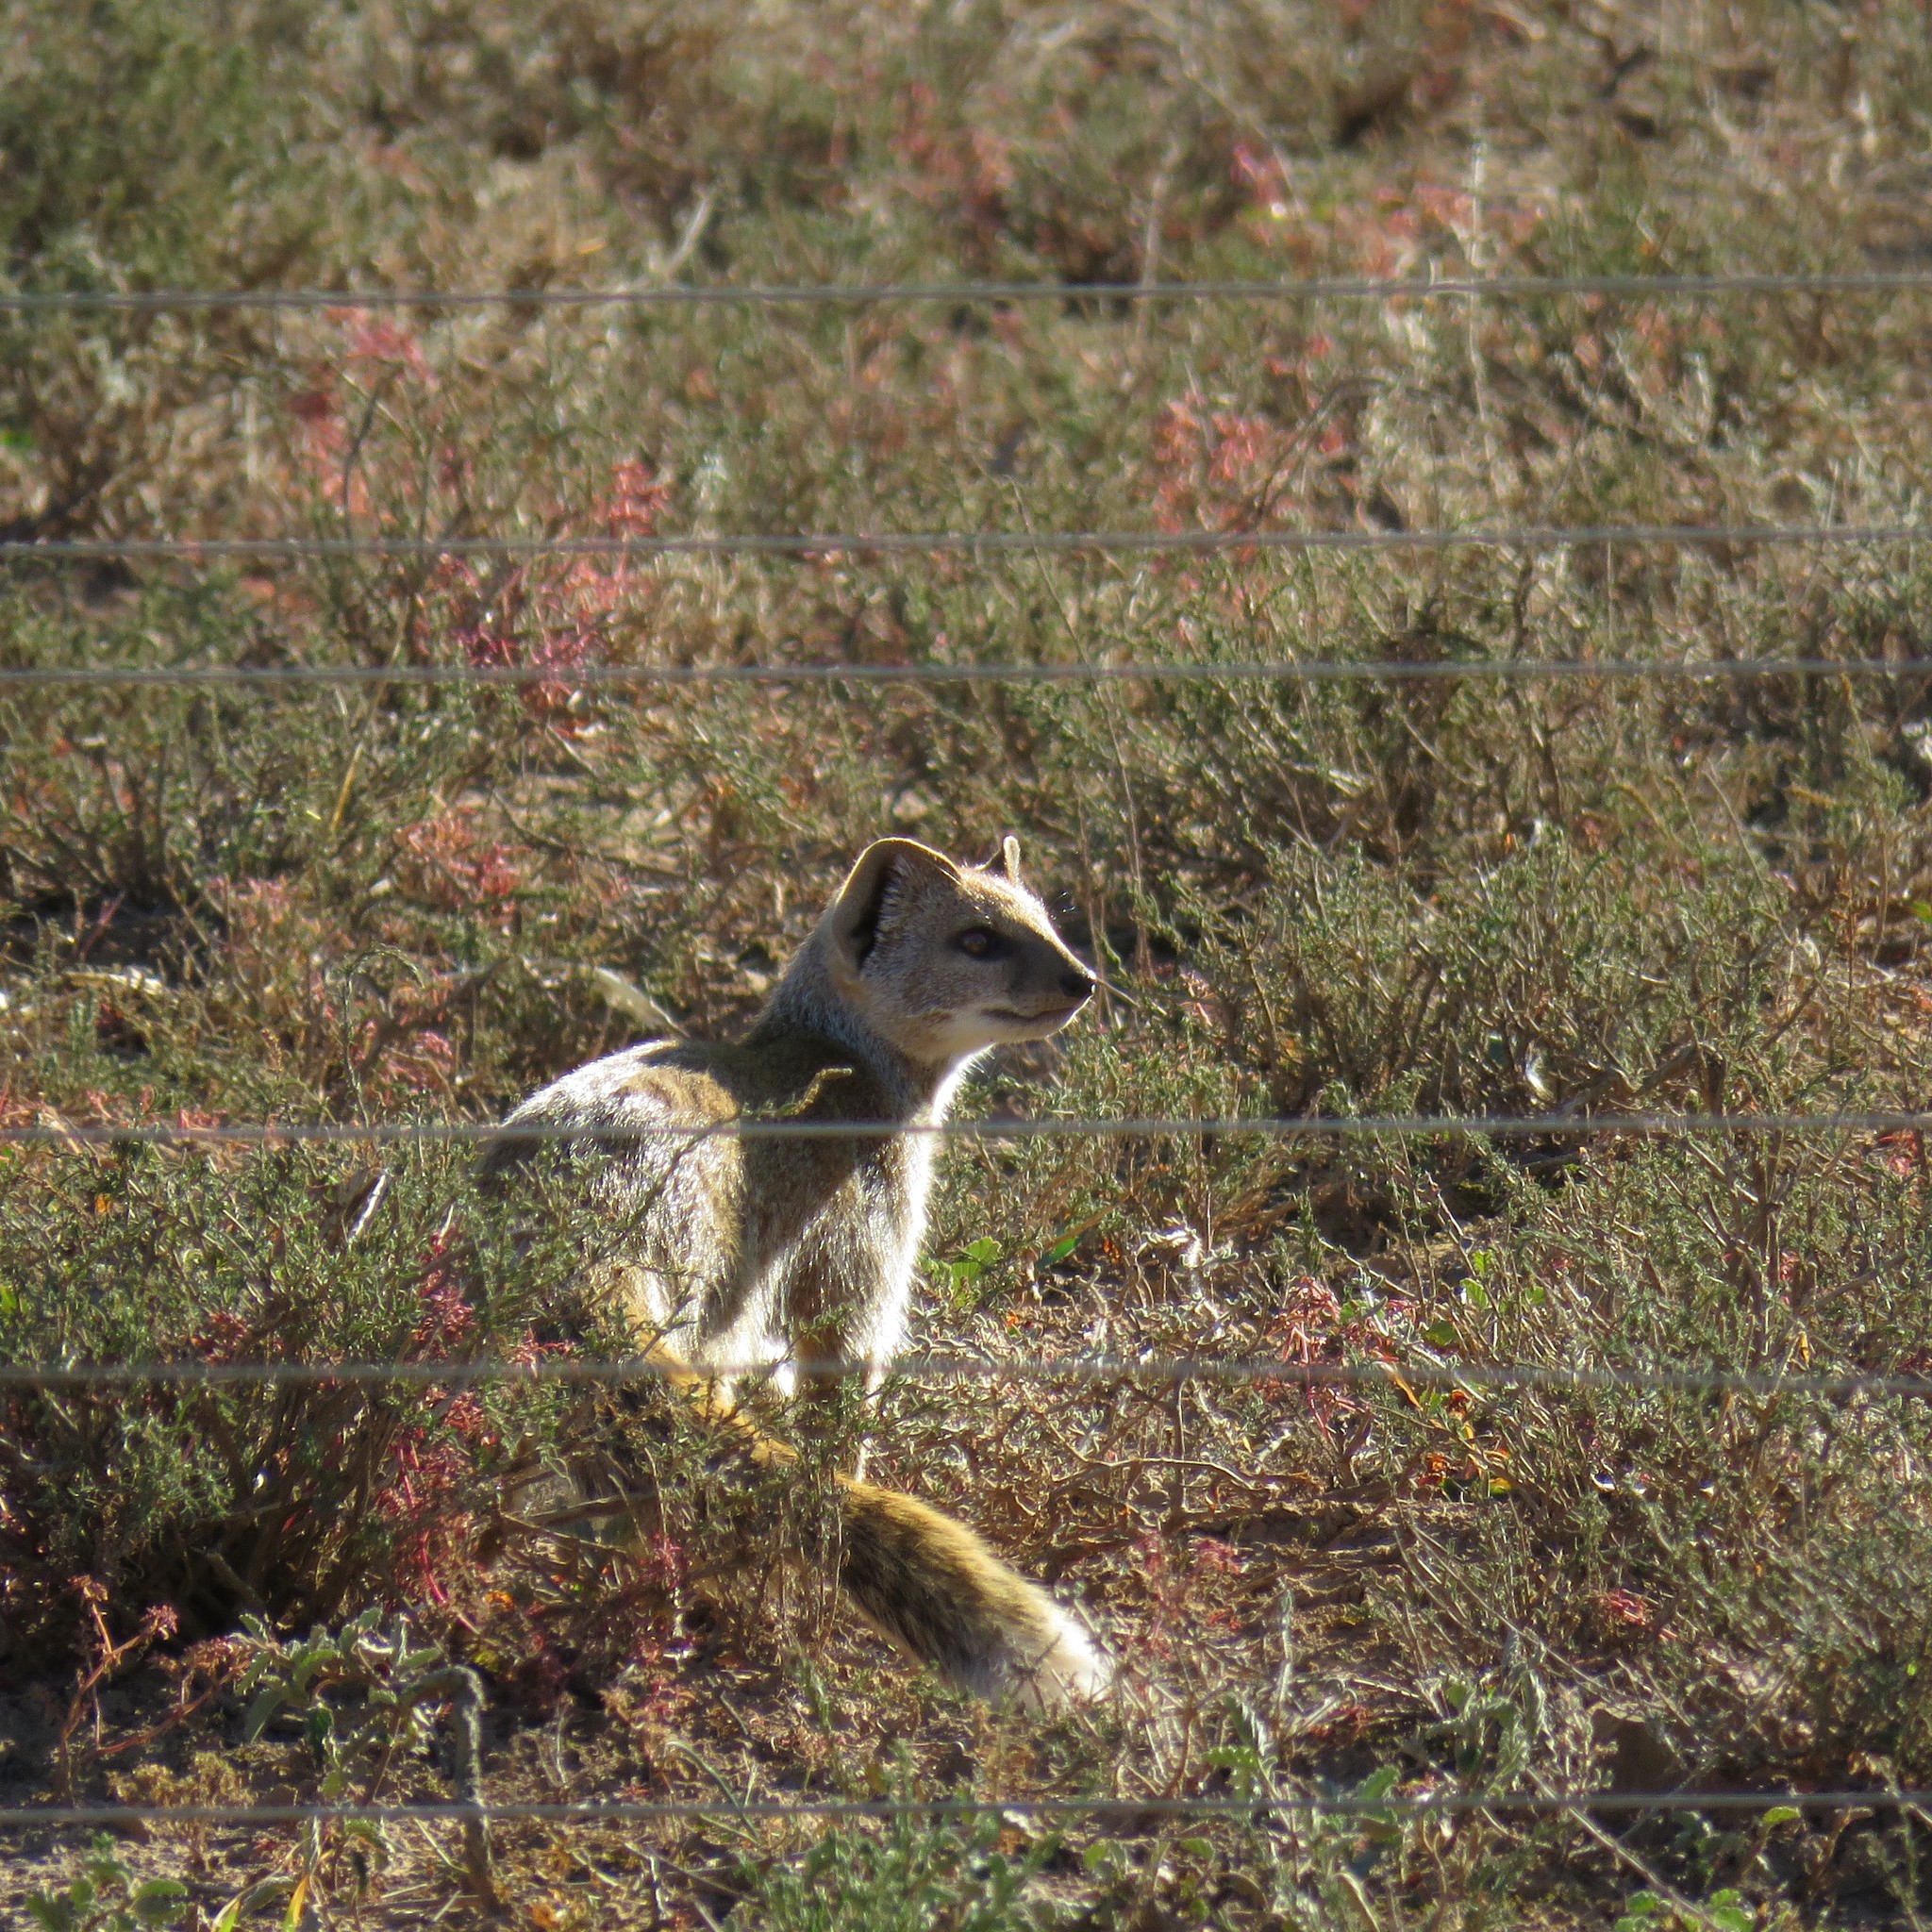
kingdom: Animalia
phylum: Chordata
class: Mammalia
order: Carnivora
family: Herpestidae
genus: Cynictis
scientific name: Cynictis penicillata
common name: Yellow mongoose
